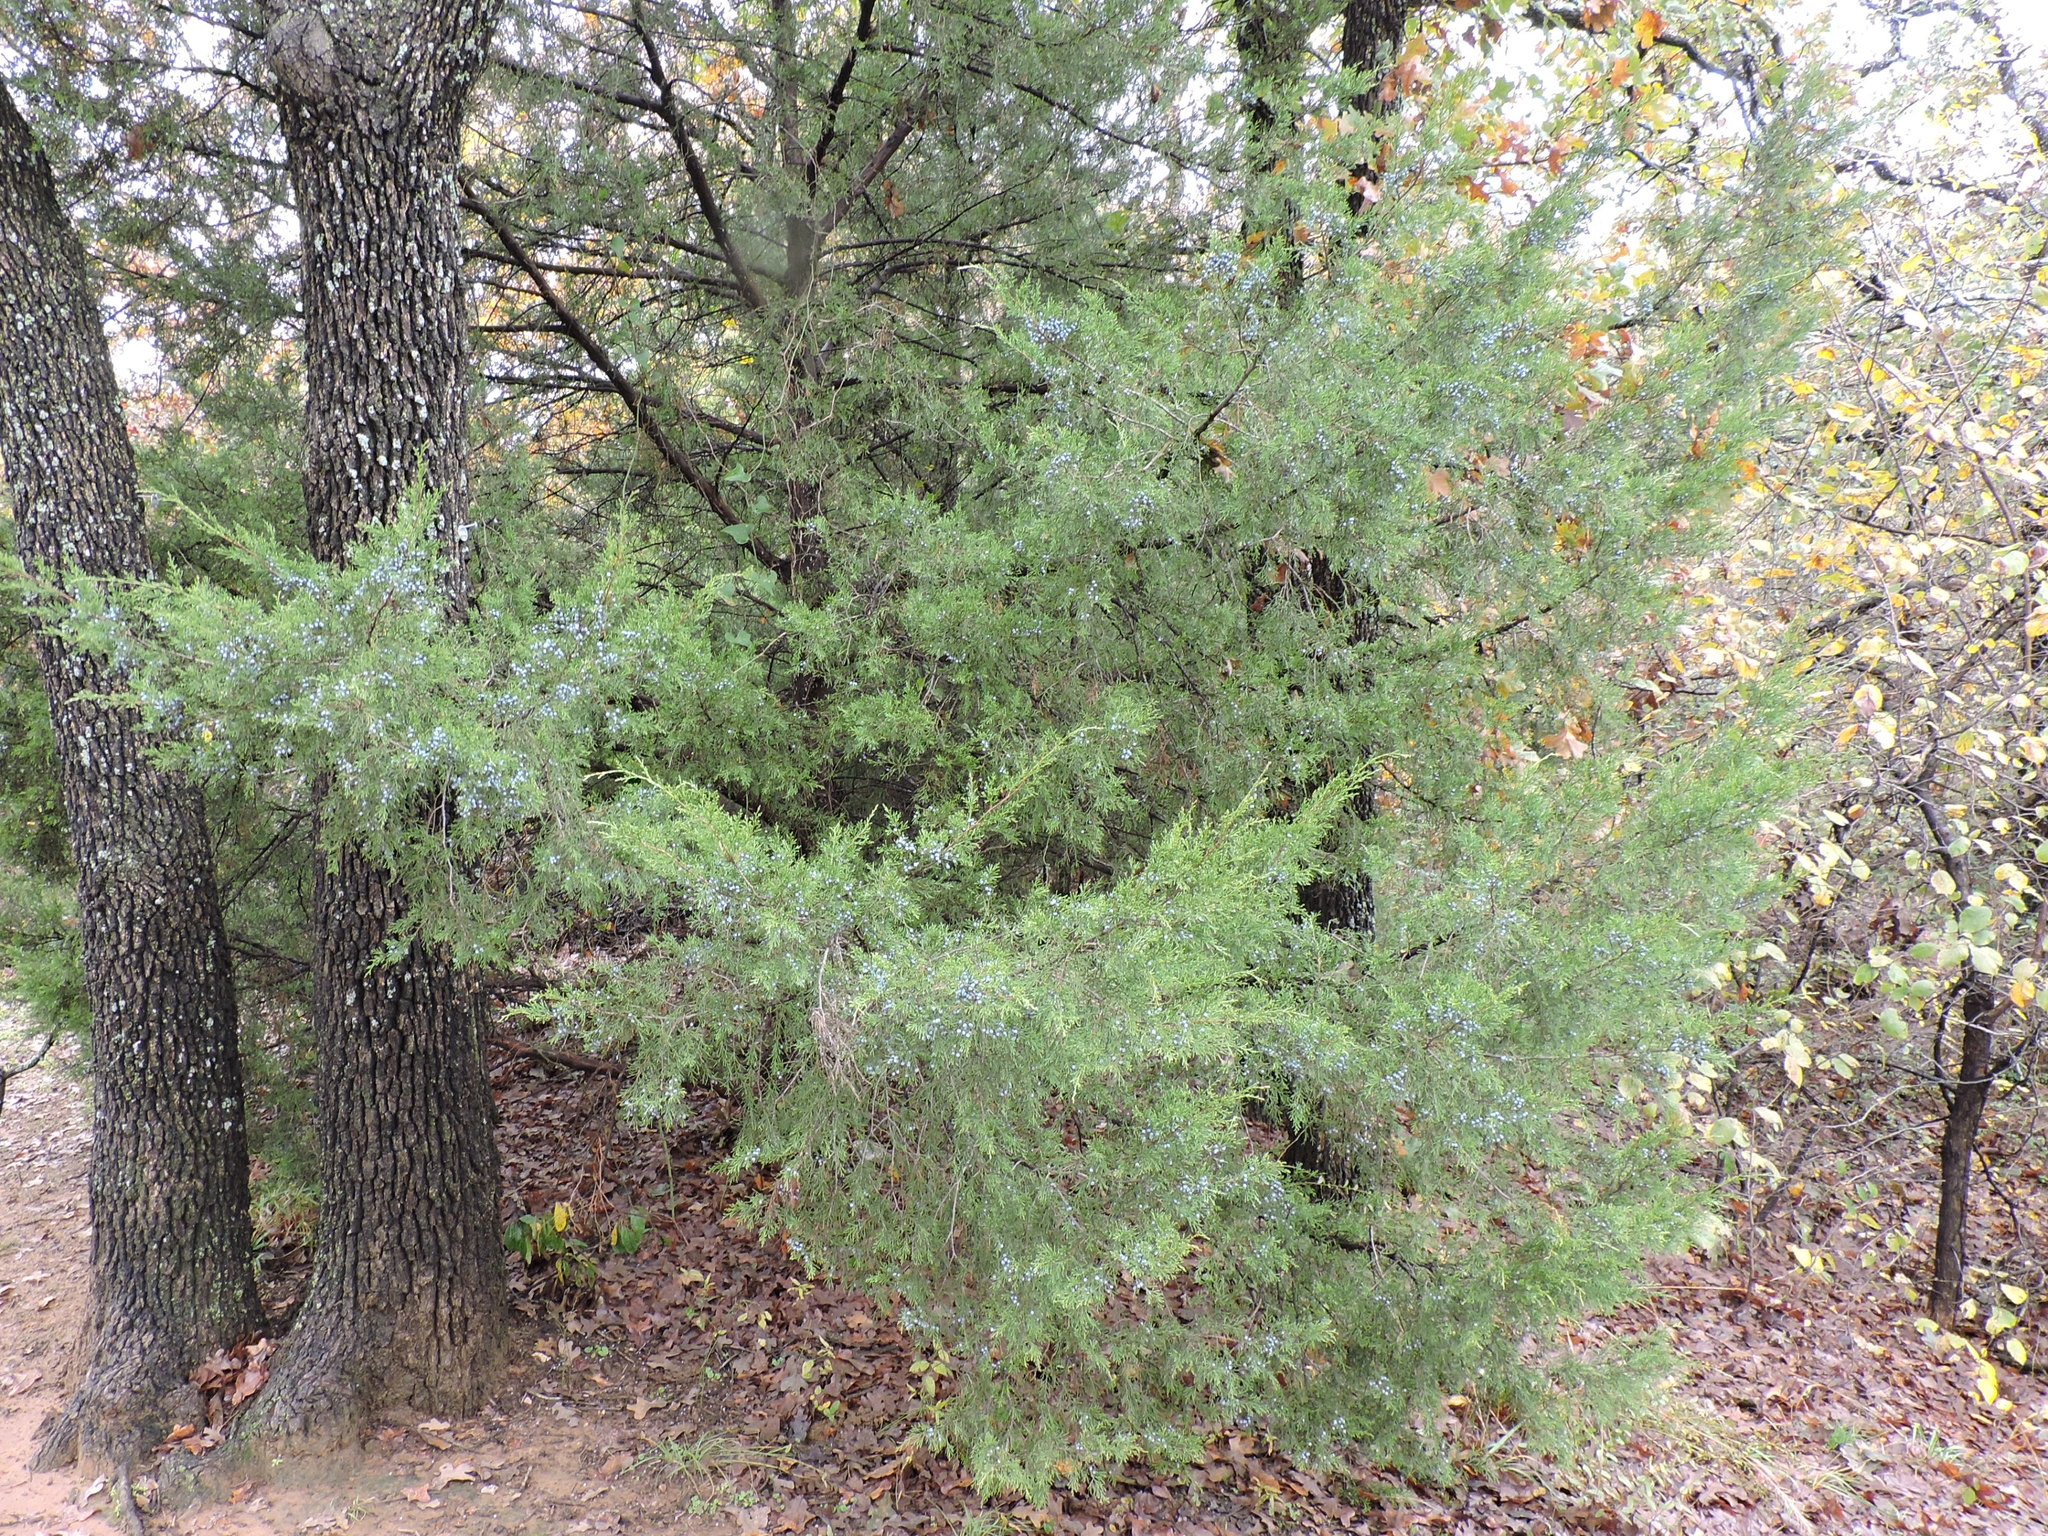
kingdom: Plantae
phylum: Tracheophyta
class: Pinopsida
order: Pinales
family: Cupressaceae
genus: Juniperus
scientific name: Juniperus virginiana
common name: Red juniper
